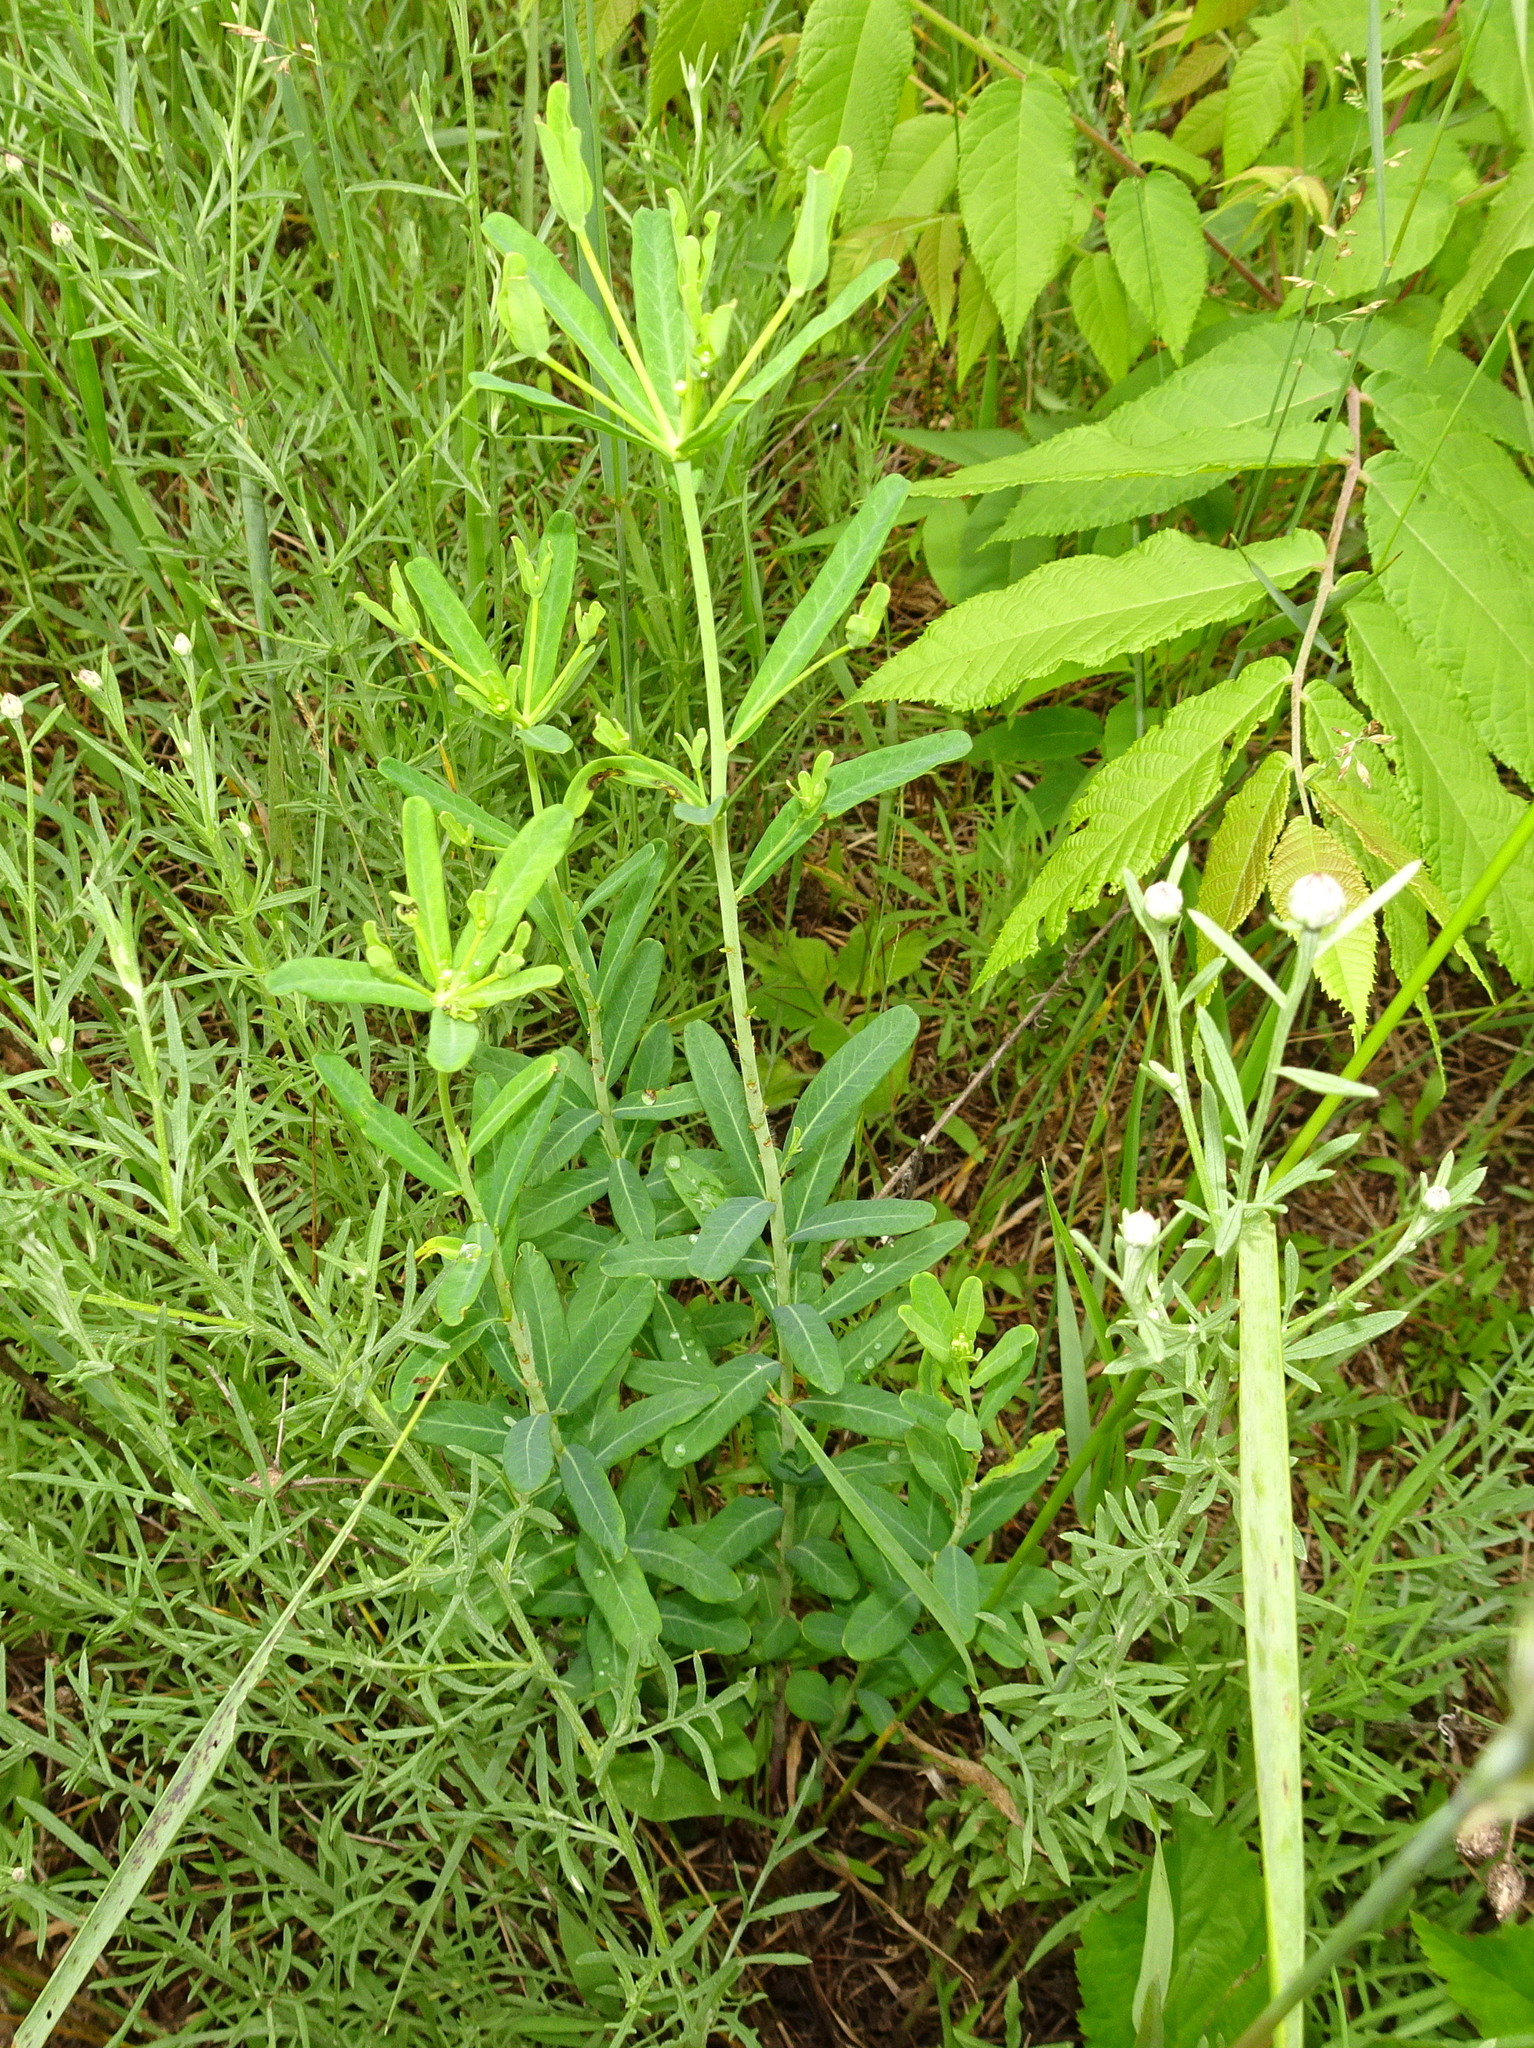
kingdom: Plantae
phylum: Tracheophyta
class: Magnoliopsida
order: Malpighiales
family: Euphorbiaceae
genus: Euphorbia
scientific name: Euphorbia corollata
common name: Flowering spurge
